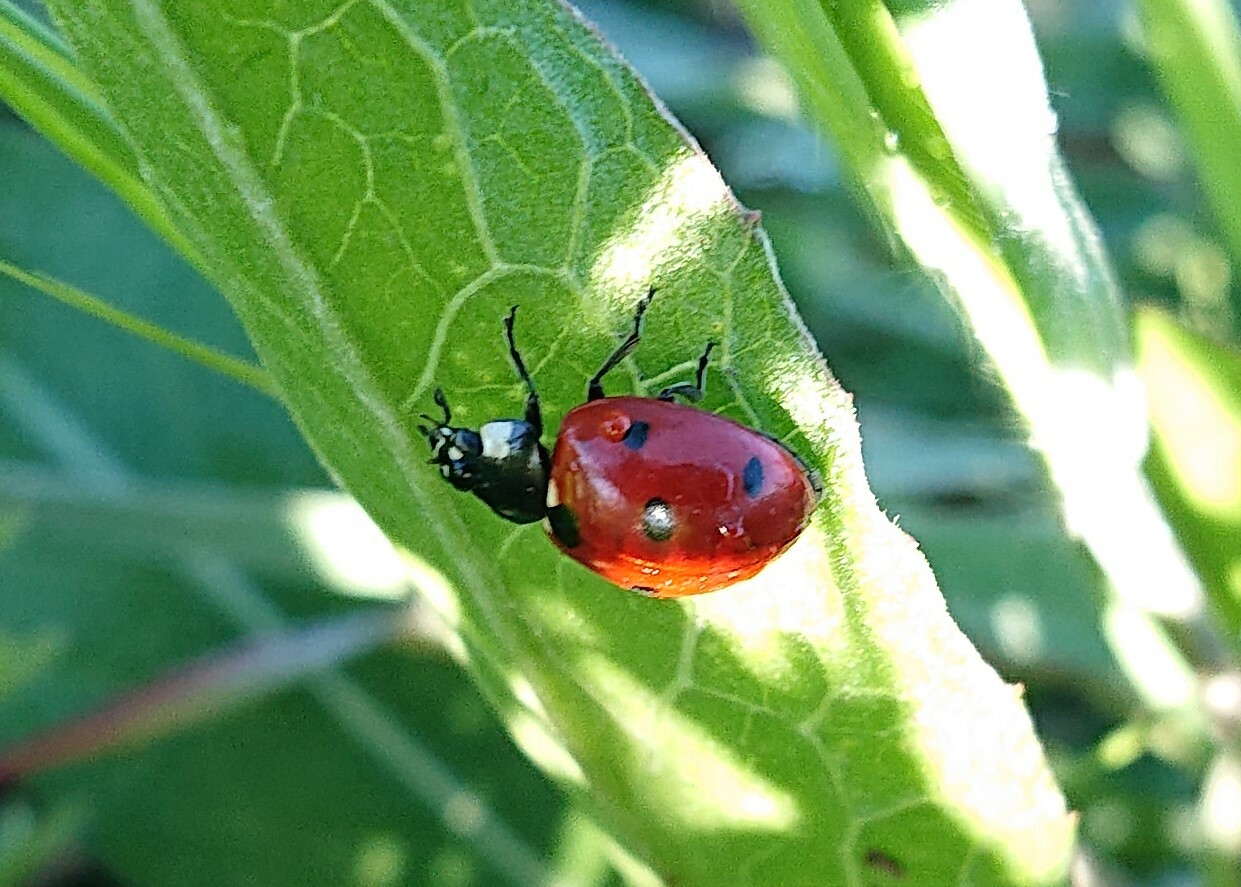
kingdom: Animalia
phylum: Arthropoda
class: Insecta
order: Coleoptera
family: Coccinellidae
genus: Coccinella
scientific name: Coccinella septempunctata
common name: Sevenspotted lady beetle
